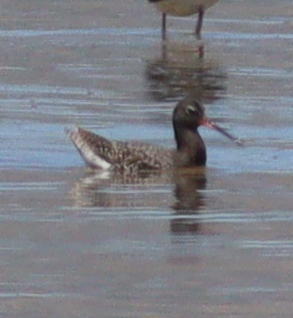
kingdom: Animalia
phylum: Chordata
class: Aves
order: Charadriiformes
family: Scolopacidae
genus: Tringa
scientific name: Tringa erythropus
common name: Spotted redshank
